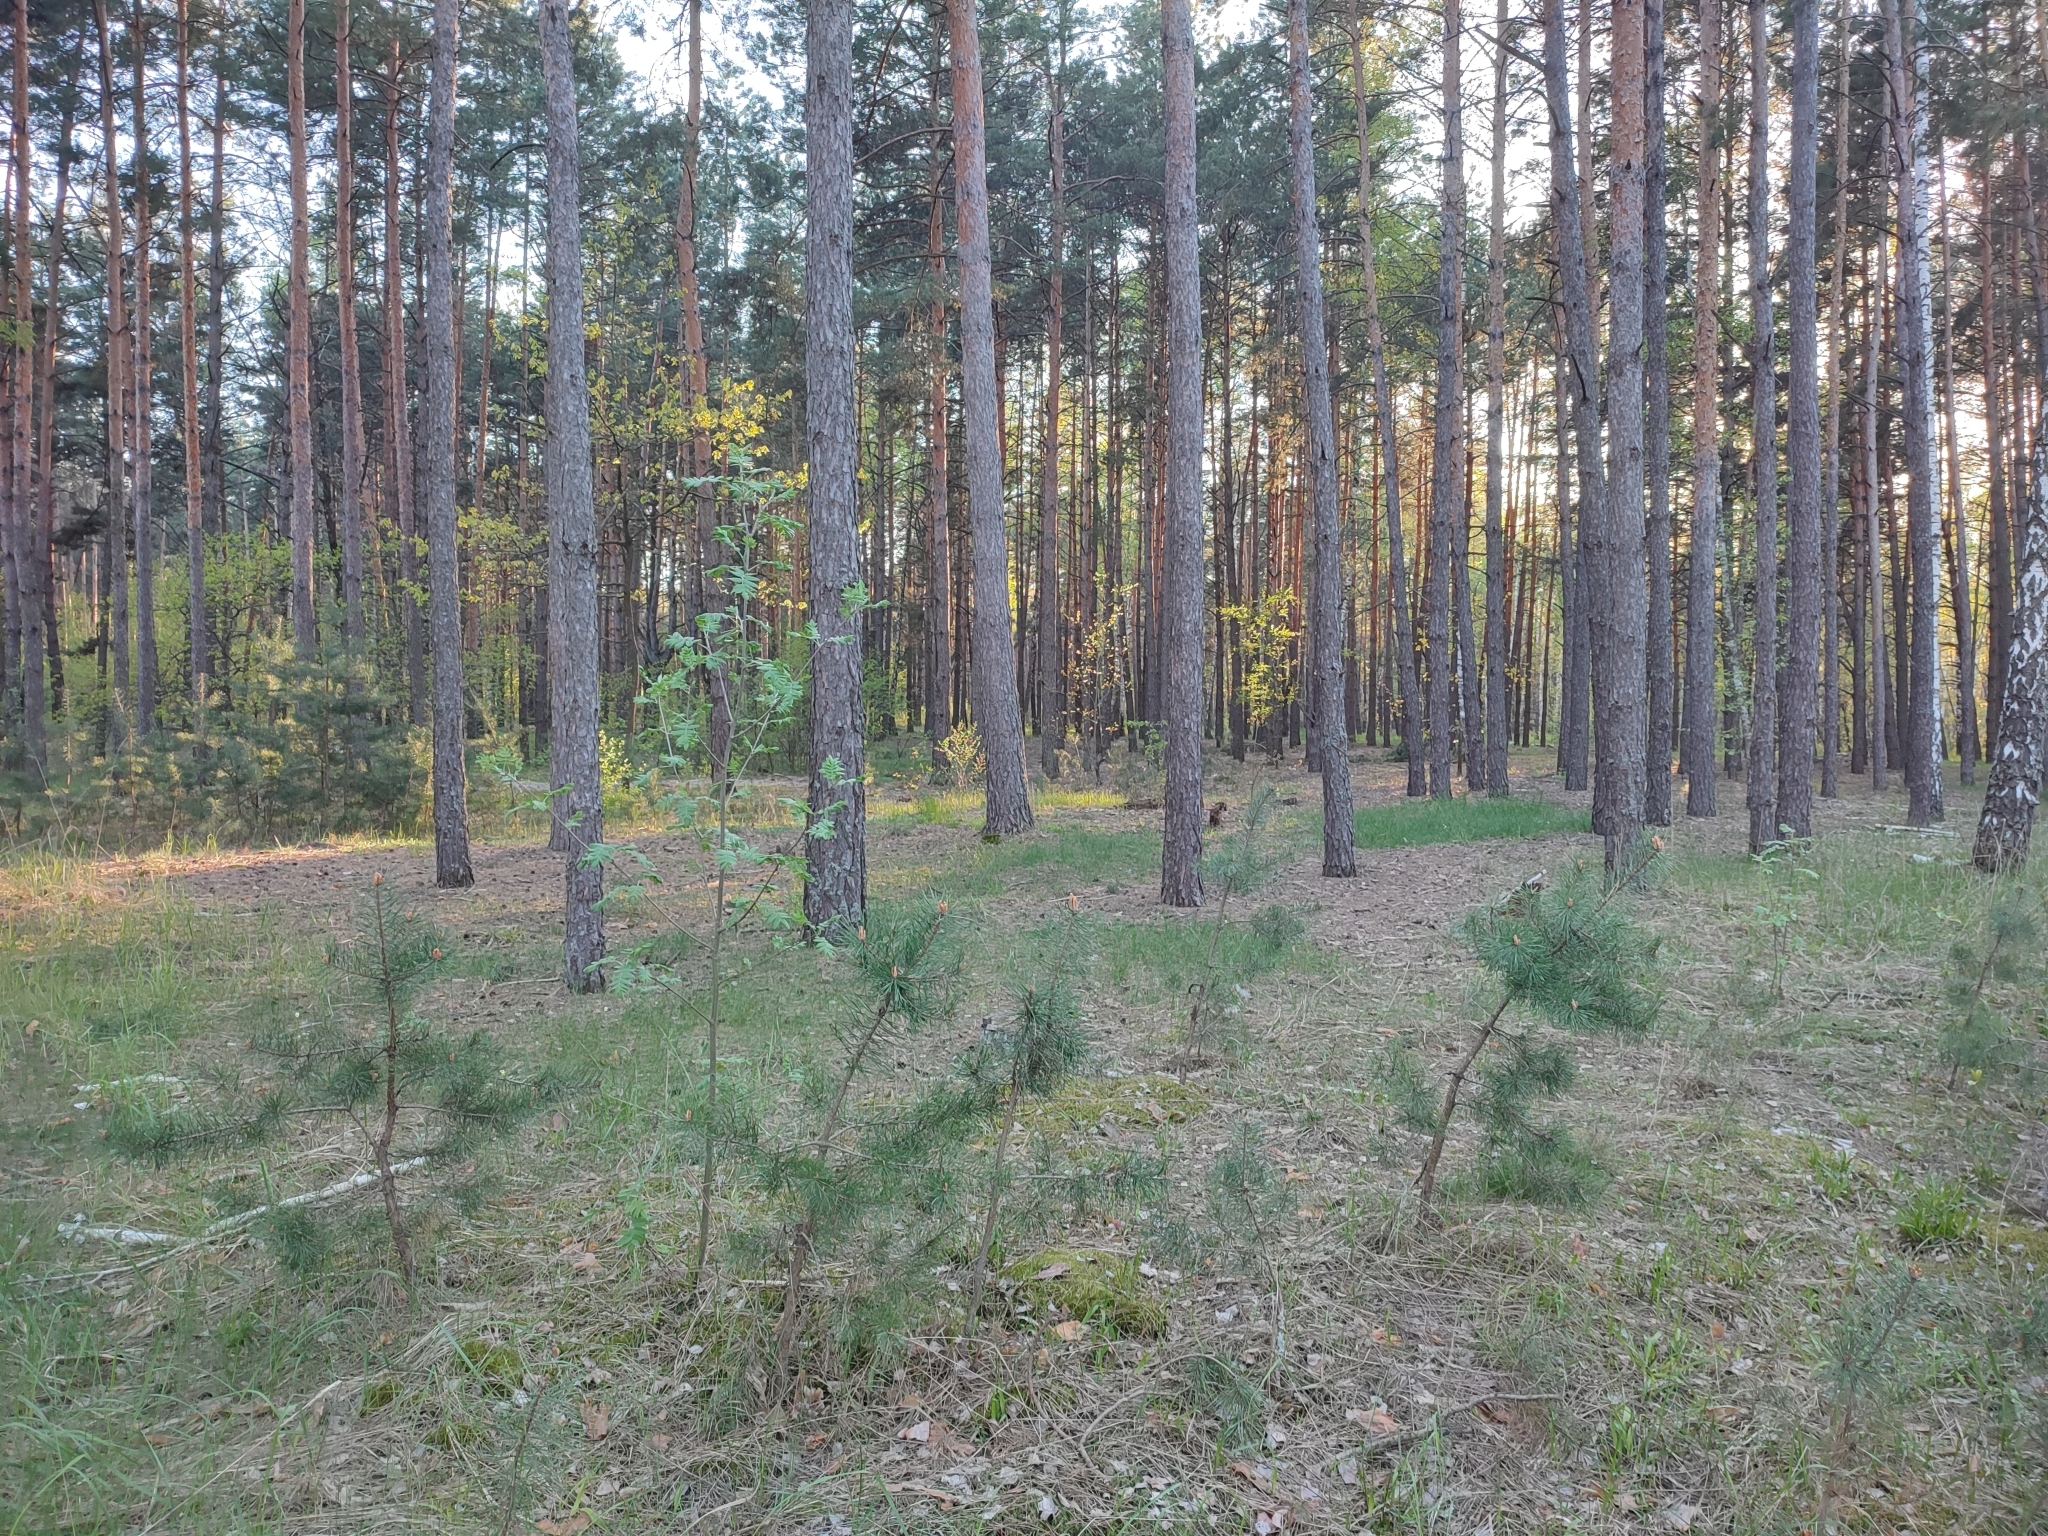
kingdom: Plantae
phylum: Tracheophyta
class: Pinopsida
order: Pinales
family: Pinaceae
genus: Pinus
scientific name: Pinus sylvestris
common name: Scots pine
